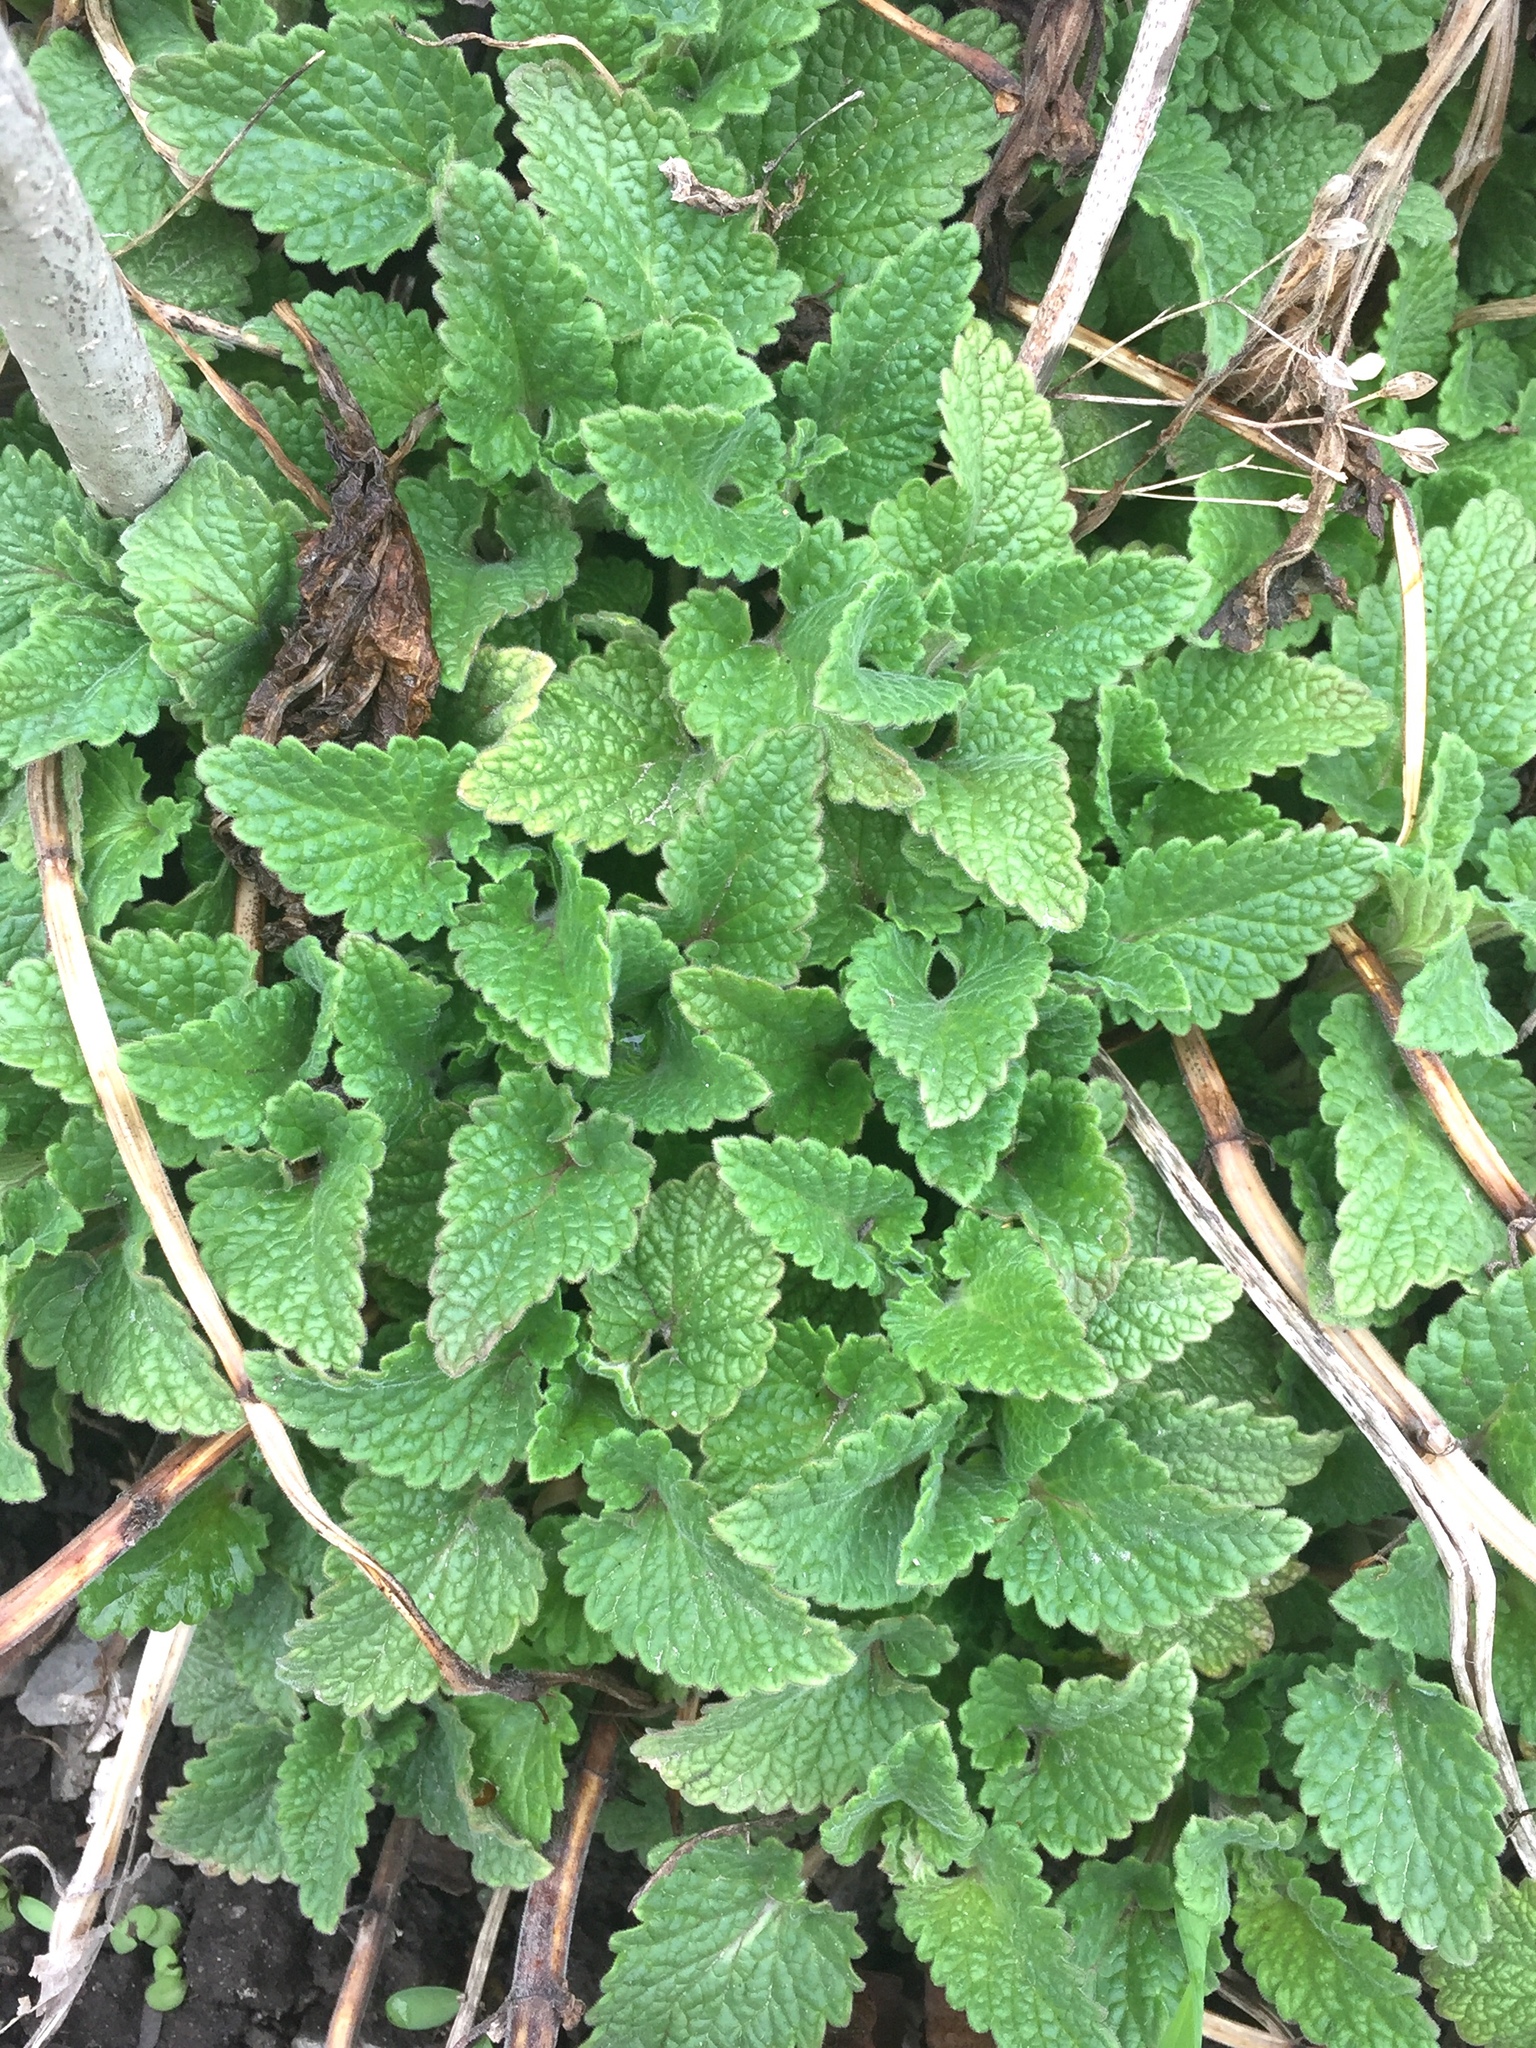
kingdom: Plantae
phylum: Tracheophyta
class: Magnoliopsida
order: Lamiales
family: Lamiaceae
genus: Nepeta
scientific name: Nepeta cataria
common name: Catnip
